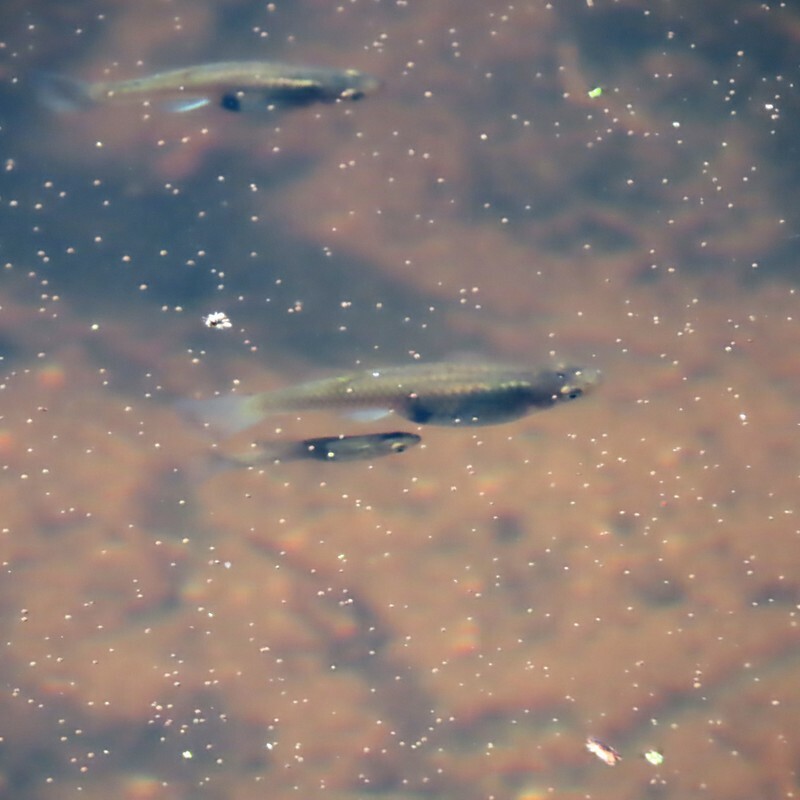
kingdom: Animalia
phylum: Chordata
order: Cyprinodontiformes
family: Poeciliidae
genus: Gambusia
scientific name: Gambusia holbrooki
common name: Eastern mosquitofish
